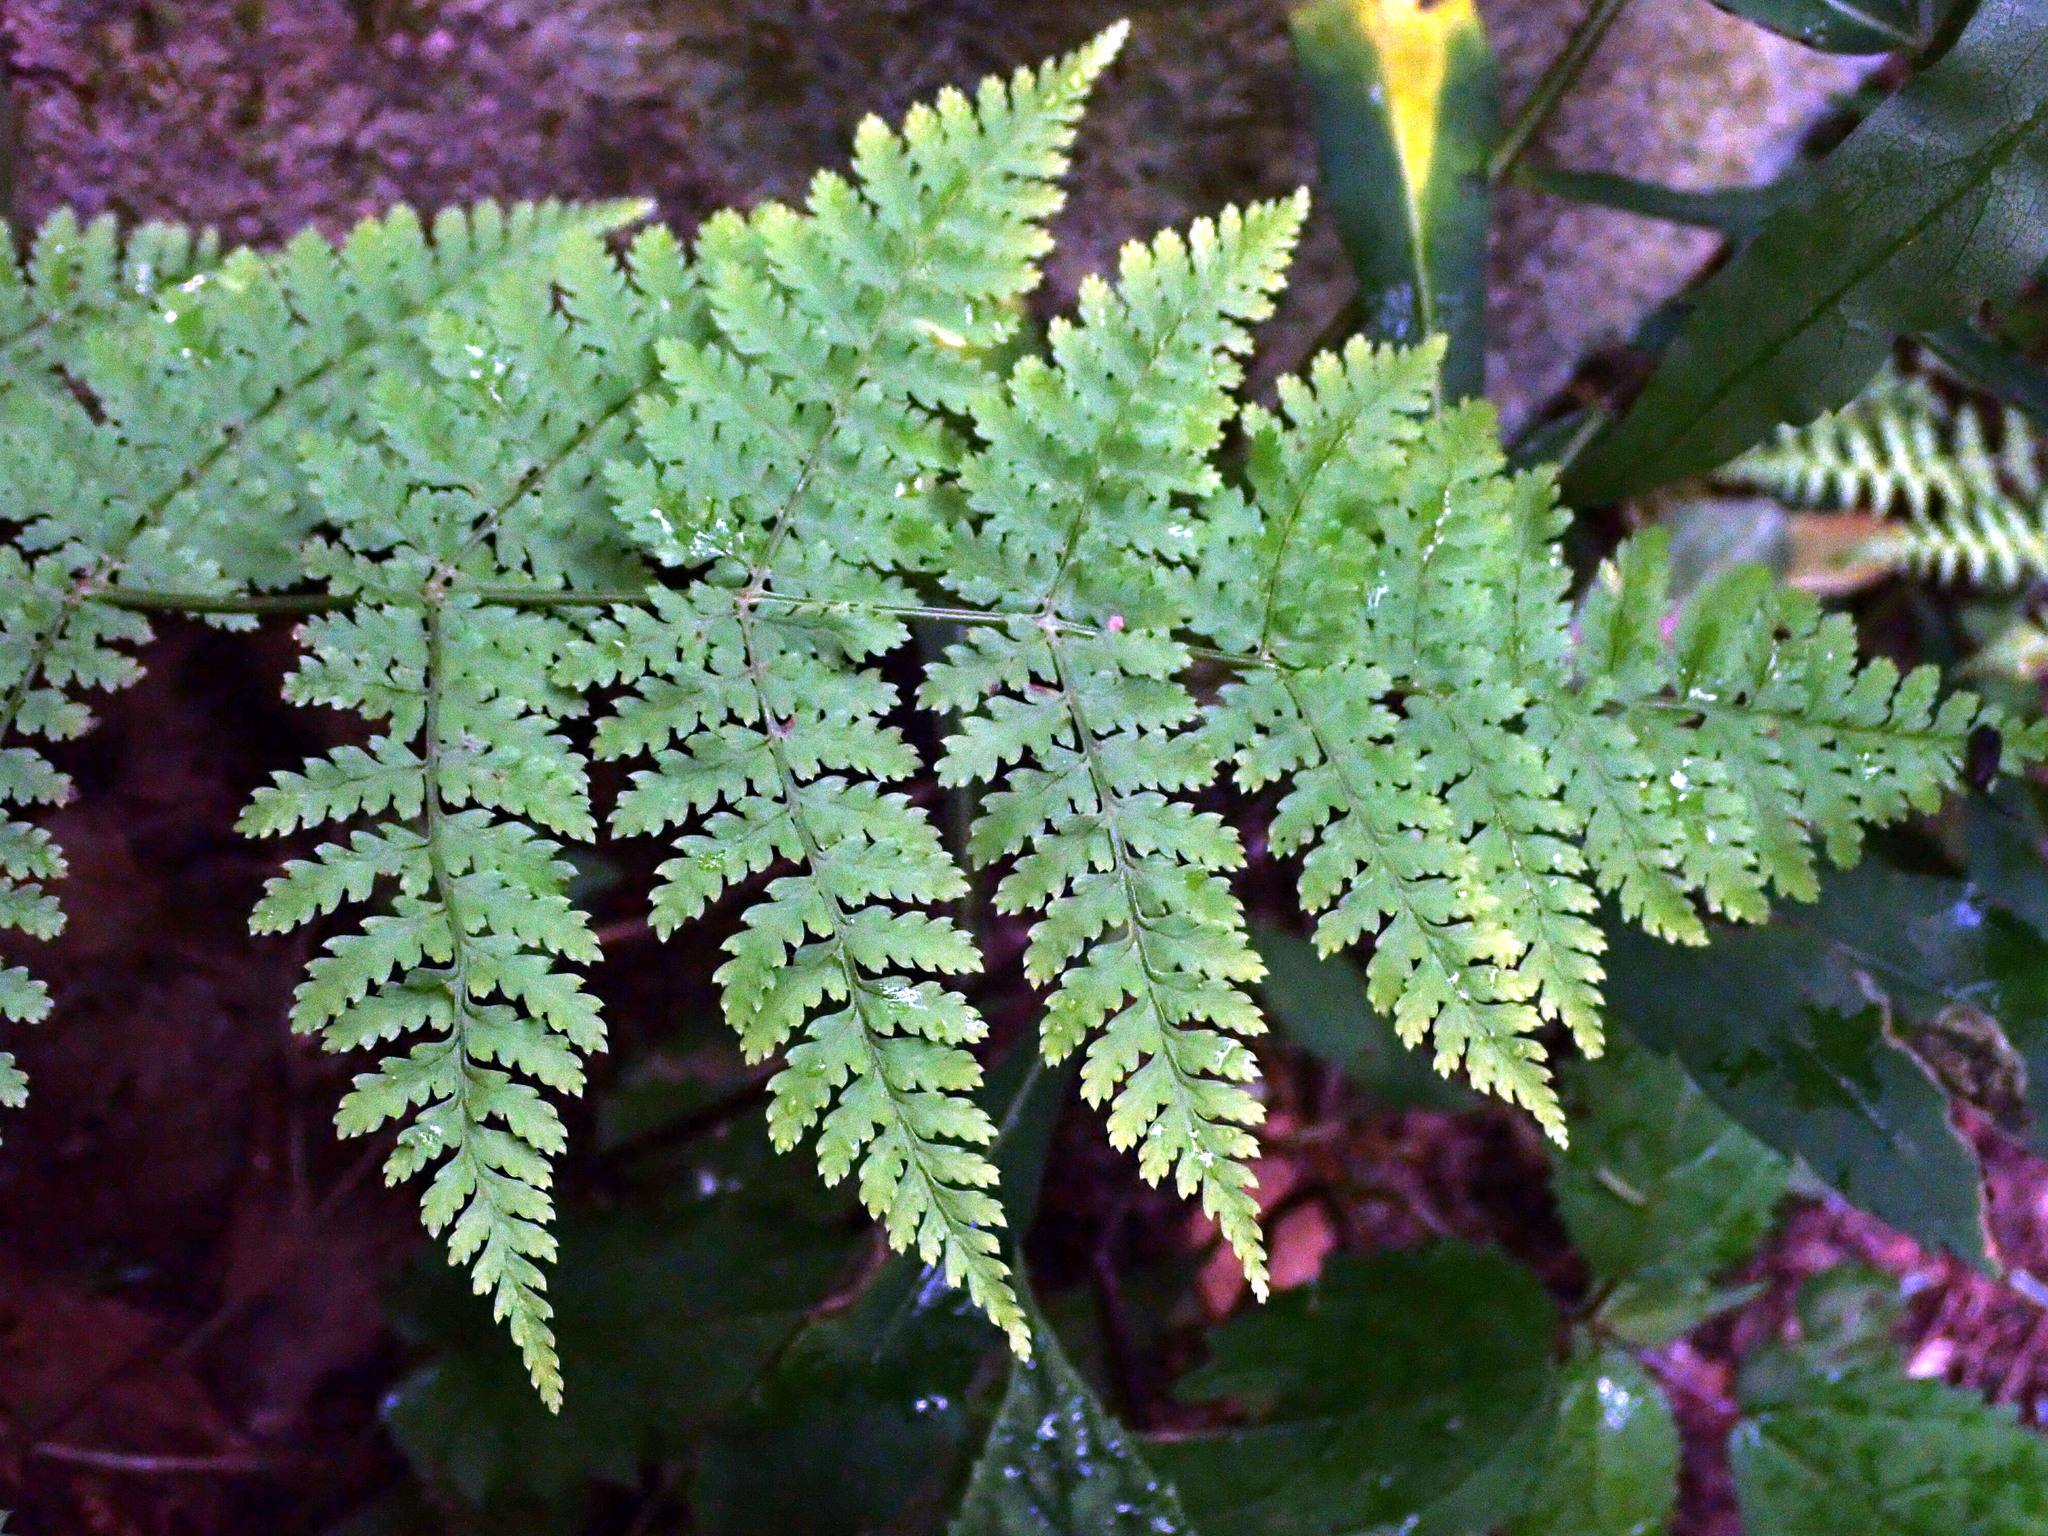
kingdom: Plantae
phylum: Tracheophyta
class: Polypodiopsida
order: Polypodiales
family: Dryopteridaceae
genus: Dryopteris
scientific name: Dryopteris intermedia
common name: Evergreen wood fern
